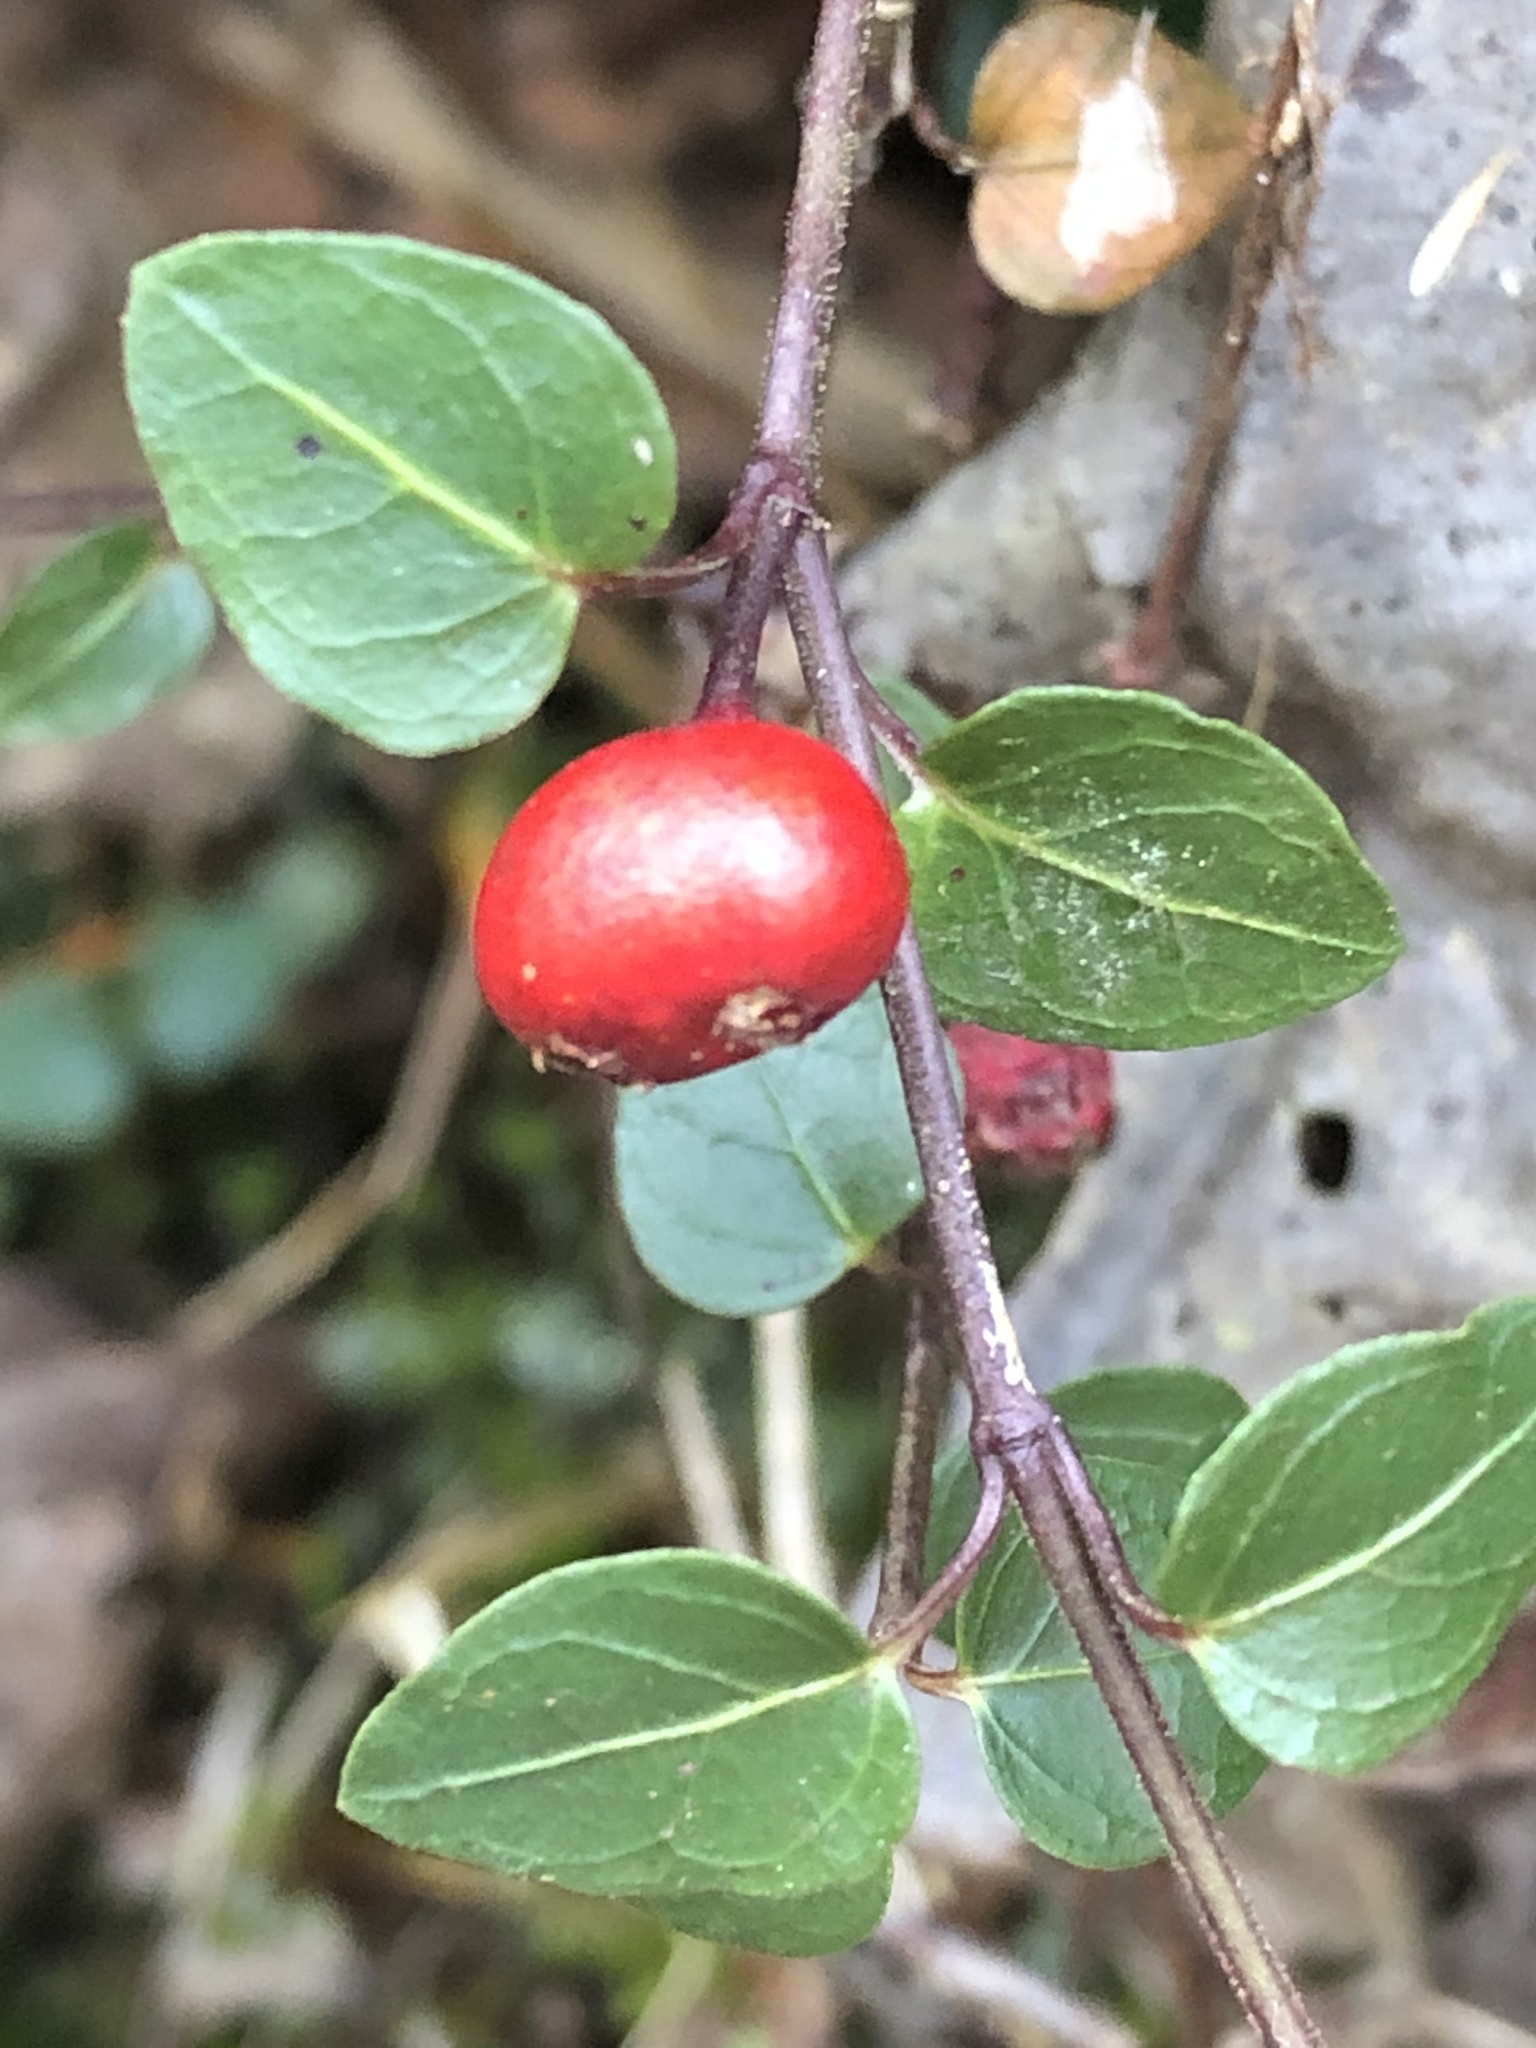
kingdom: Plantae
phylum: Tracheophyta
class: Magnoliopsida
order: Gentianales
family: Rubiaceae
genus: Mitchella
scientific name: Mitchella repens
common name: Partridge-berry
